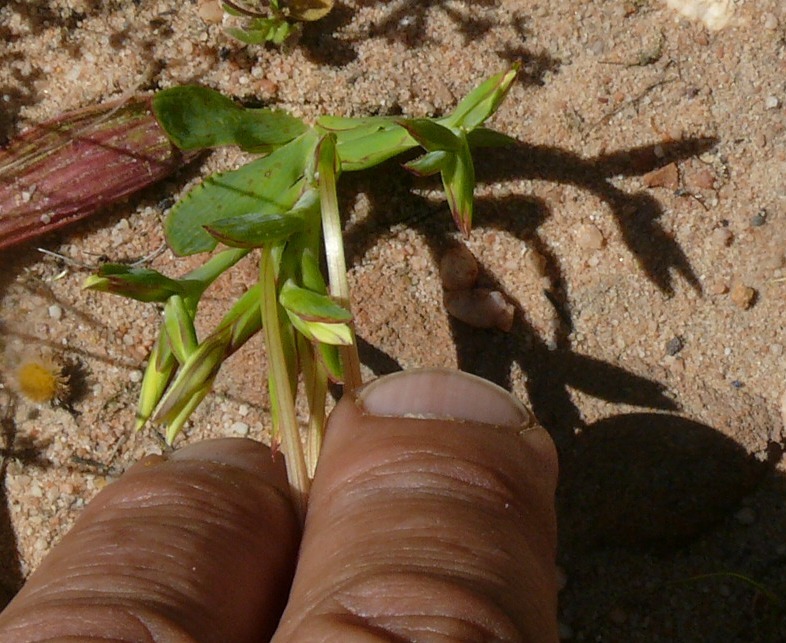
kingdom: Plantae
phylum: Tracheophyta
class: Liliopsida
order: Asparagales
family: Iridaceae
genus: Lapeirousia
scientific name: Lapeirousia fabricii
